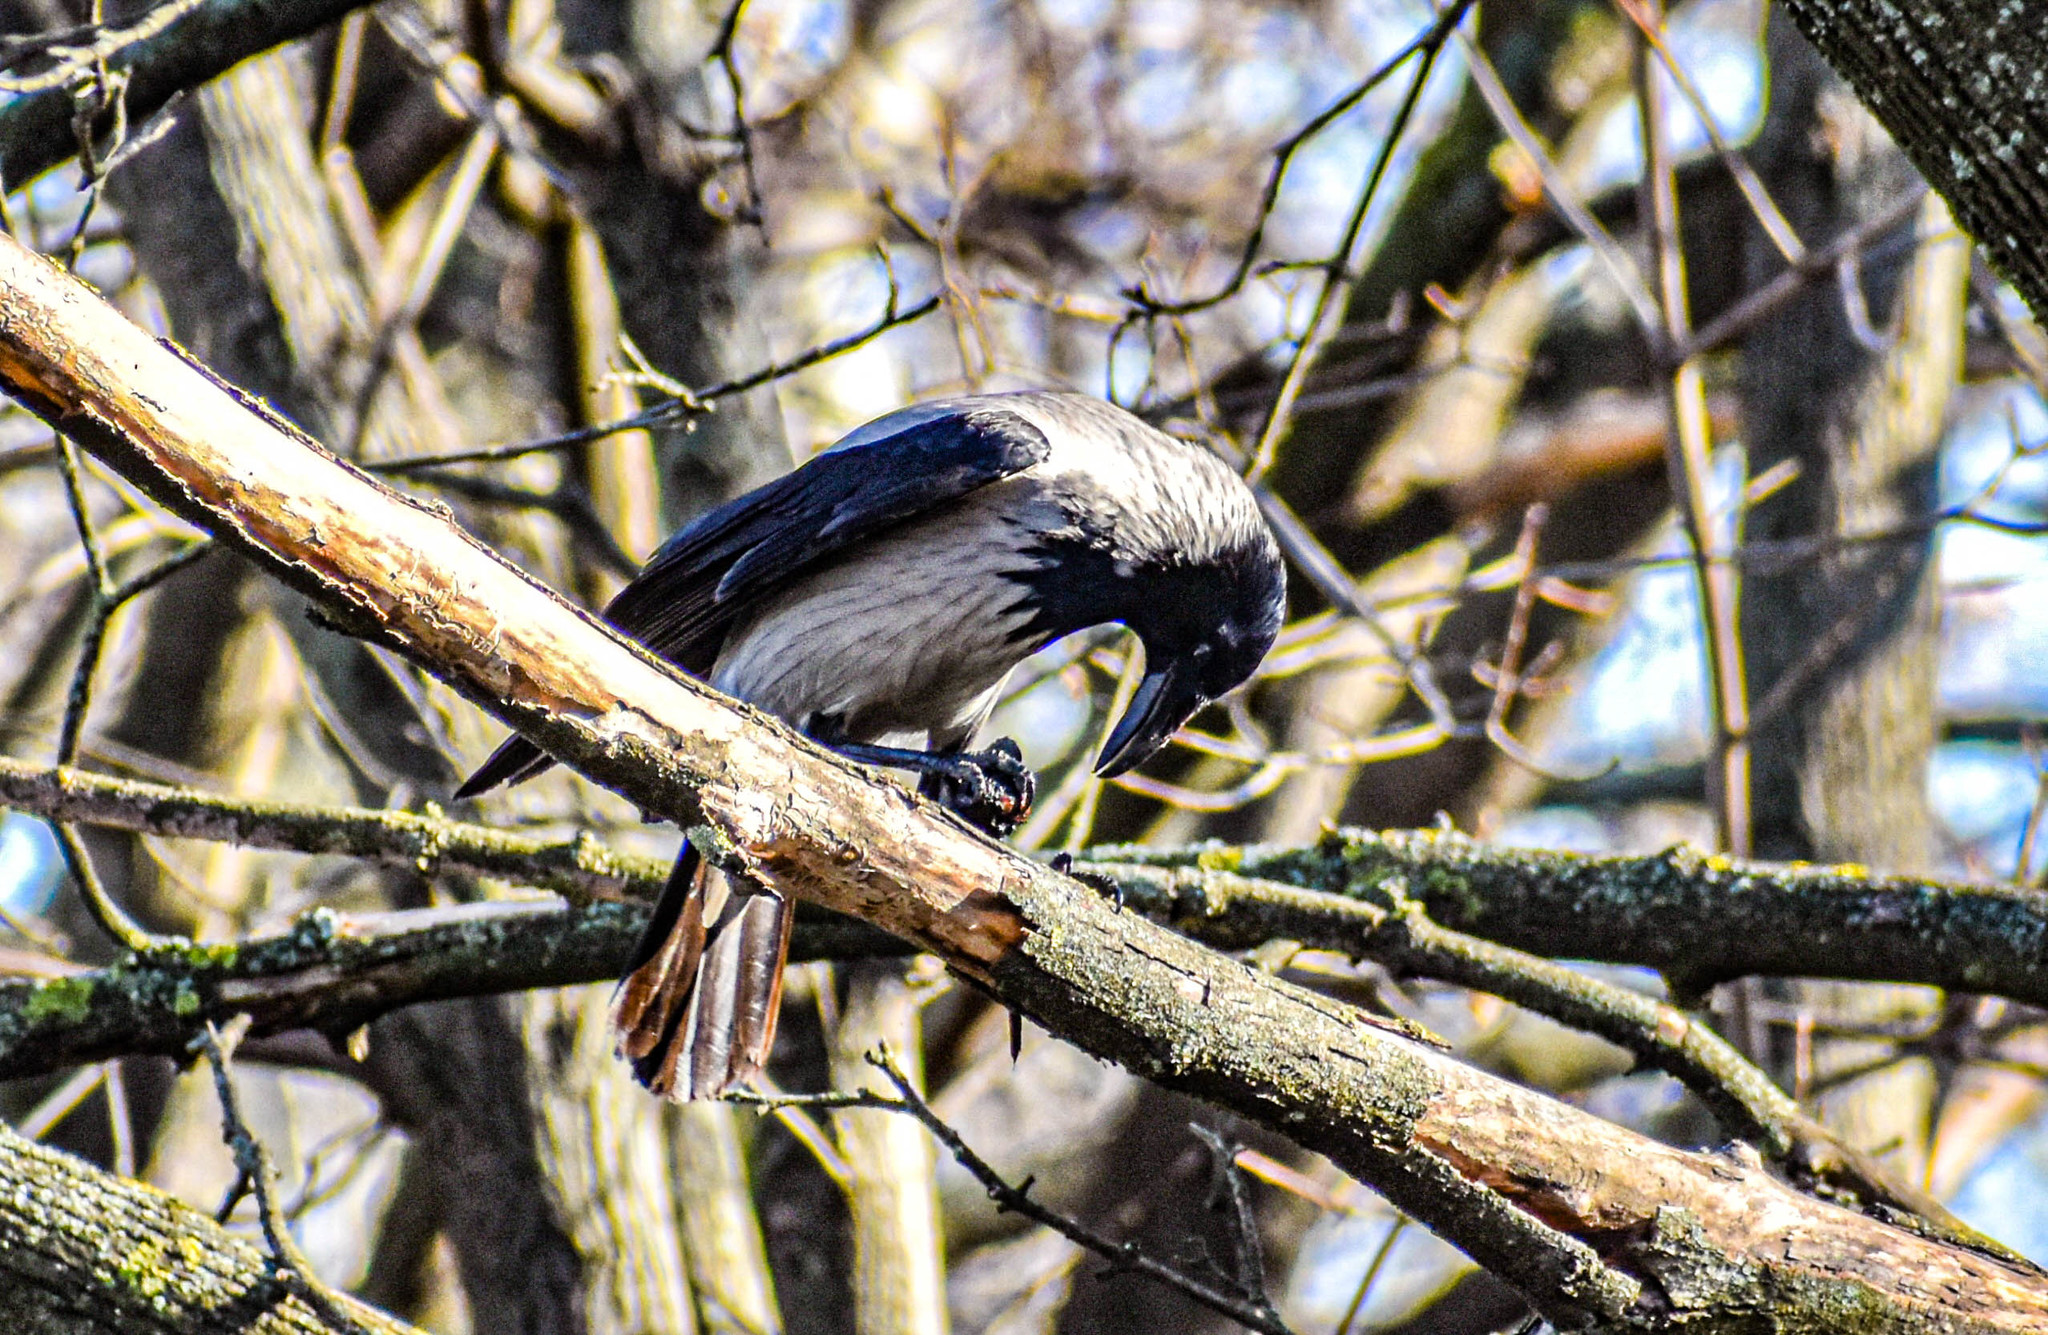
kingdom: Animalia
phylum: Chordata
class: Aves
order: Passeriformes
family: Corvidae
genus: Corvus
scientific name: Corvus cornix
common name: Hooded crow
